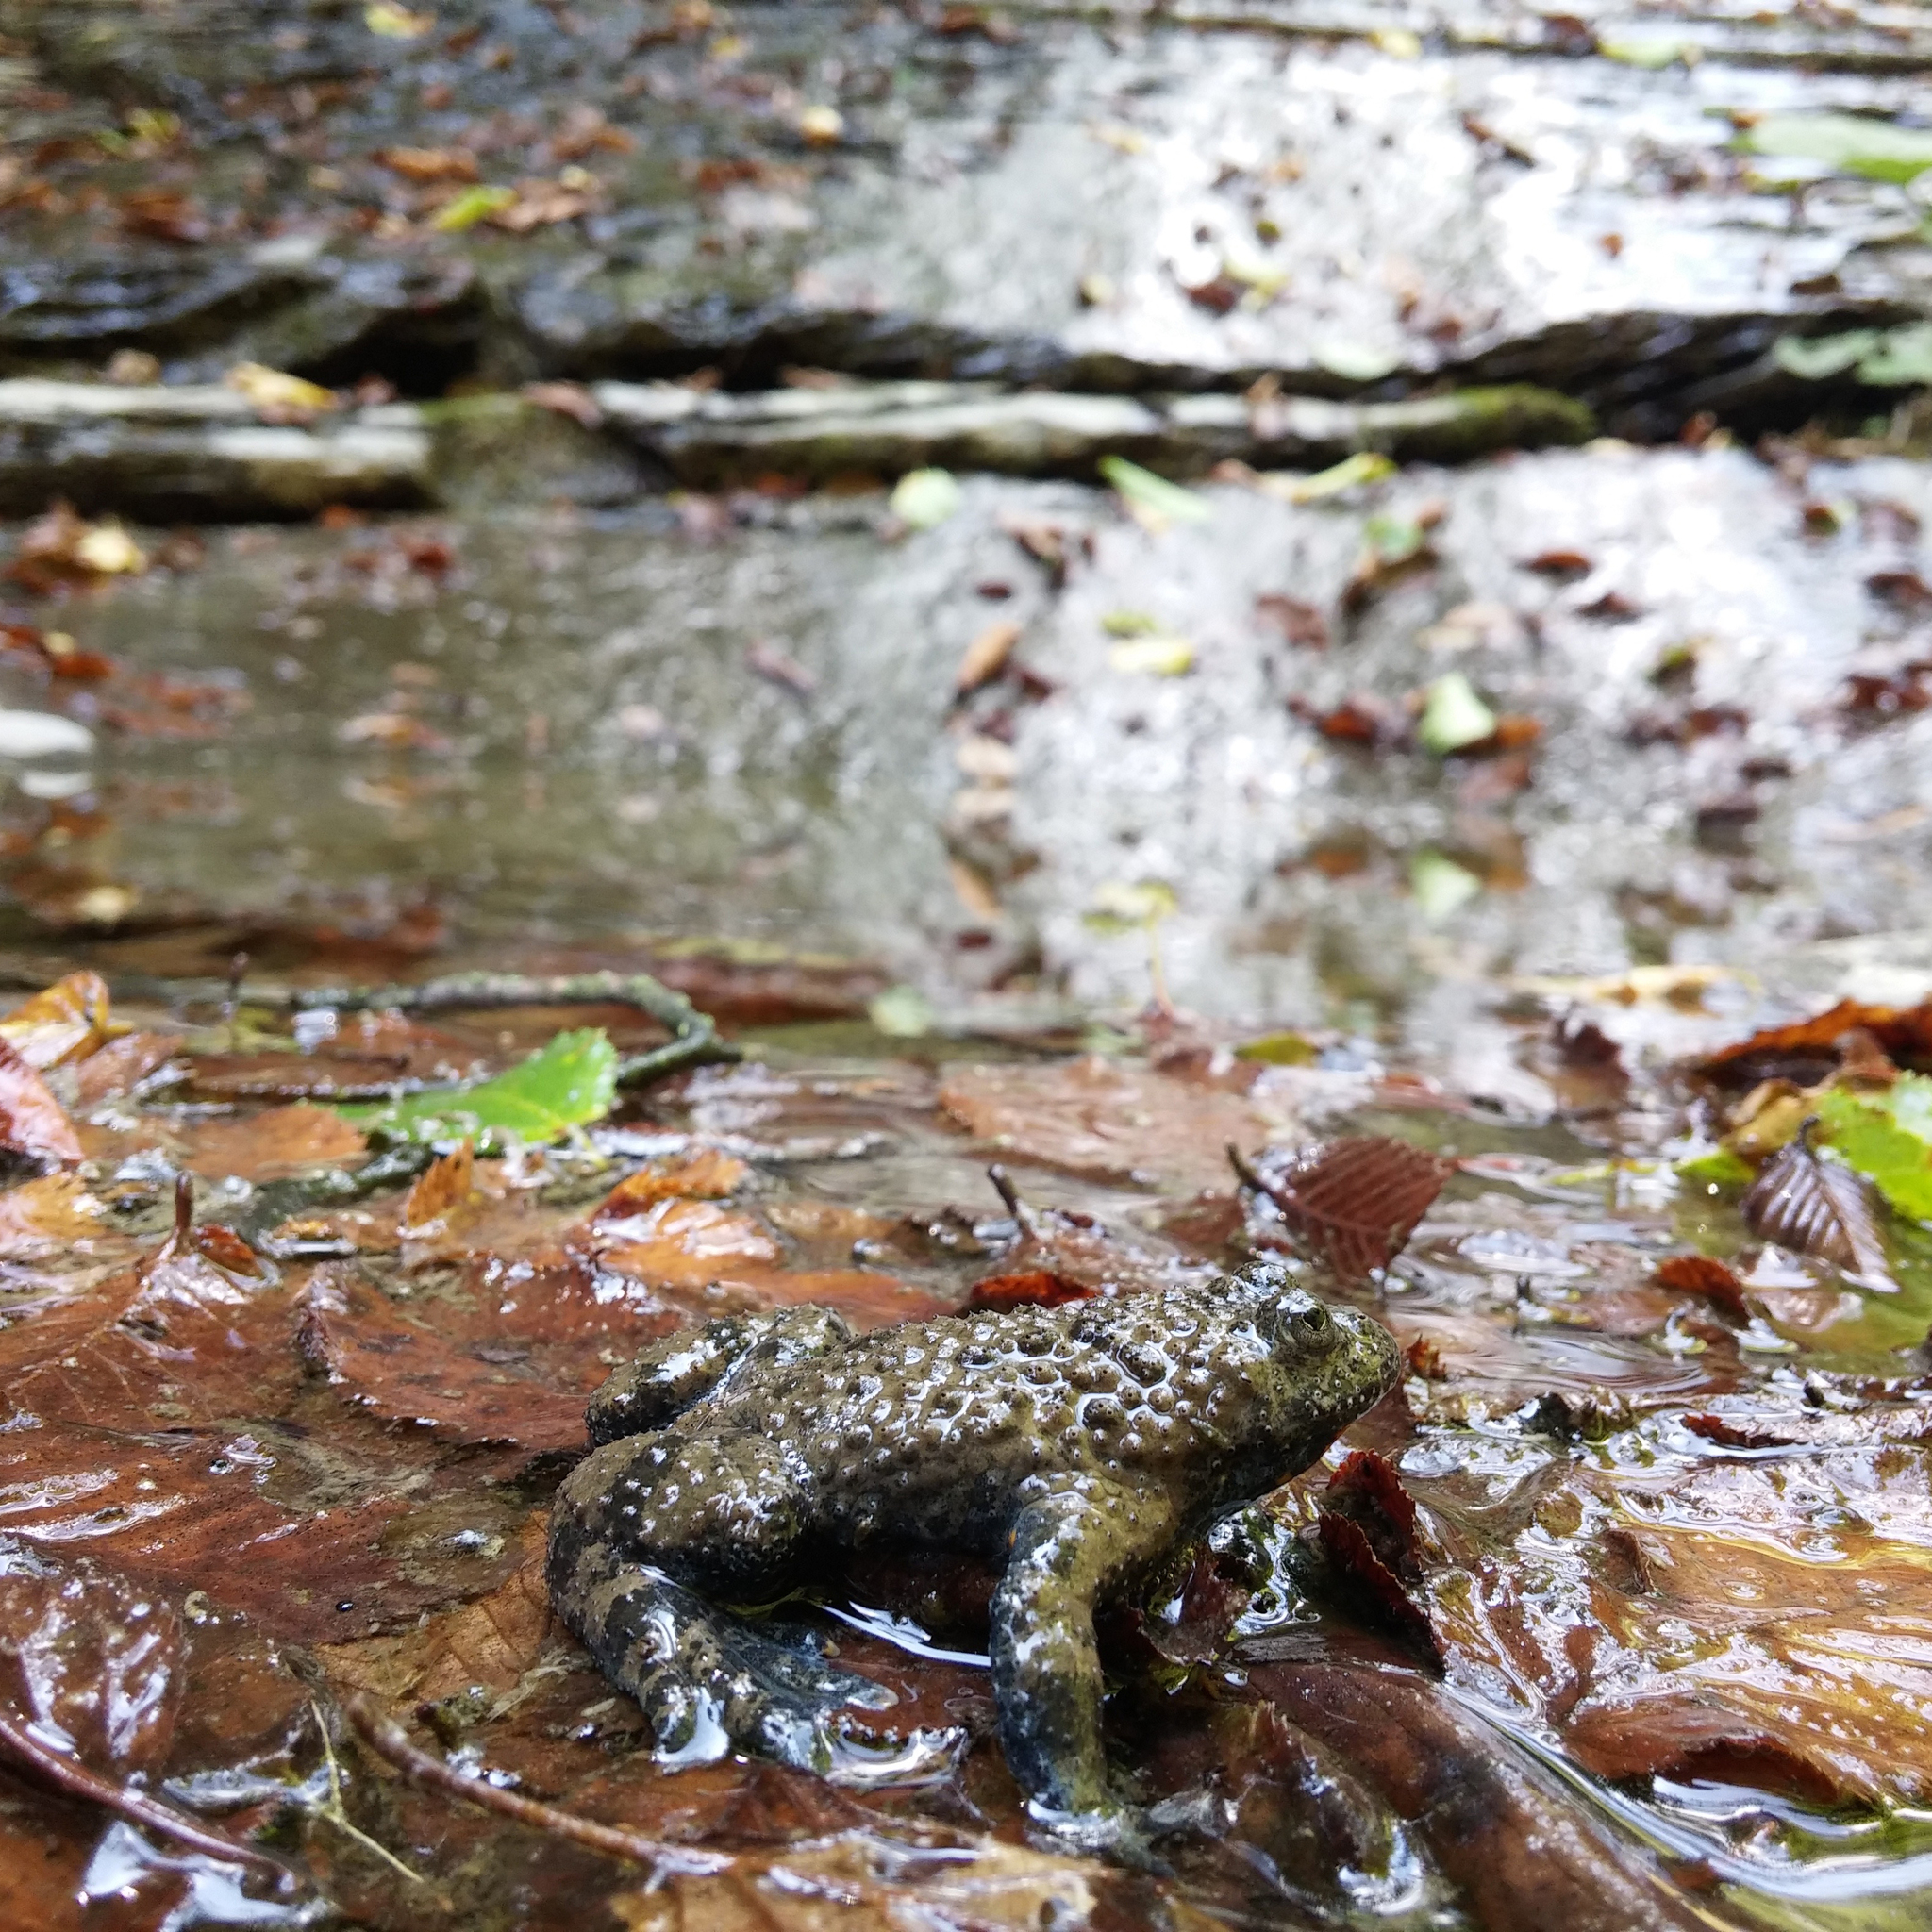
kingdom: Animalia
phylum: Chordata
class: Amphibia
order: Anura
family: Bombinatoridae
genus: Bombina
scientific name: Bombina variegata
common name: Yellow-bellied toad
